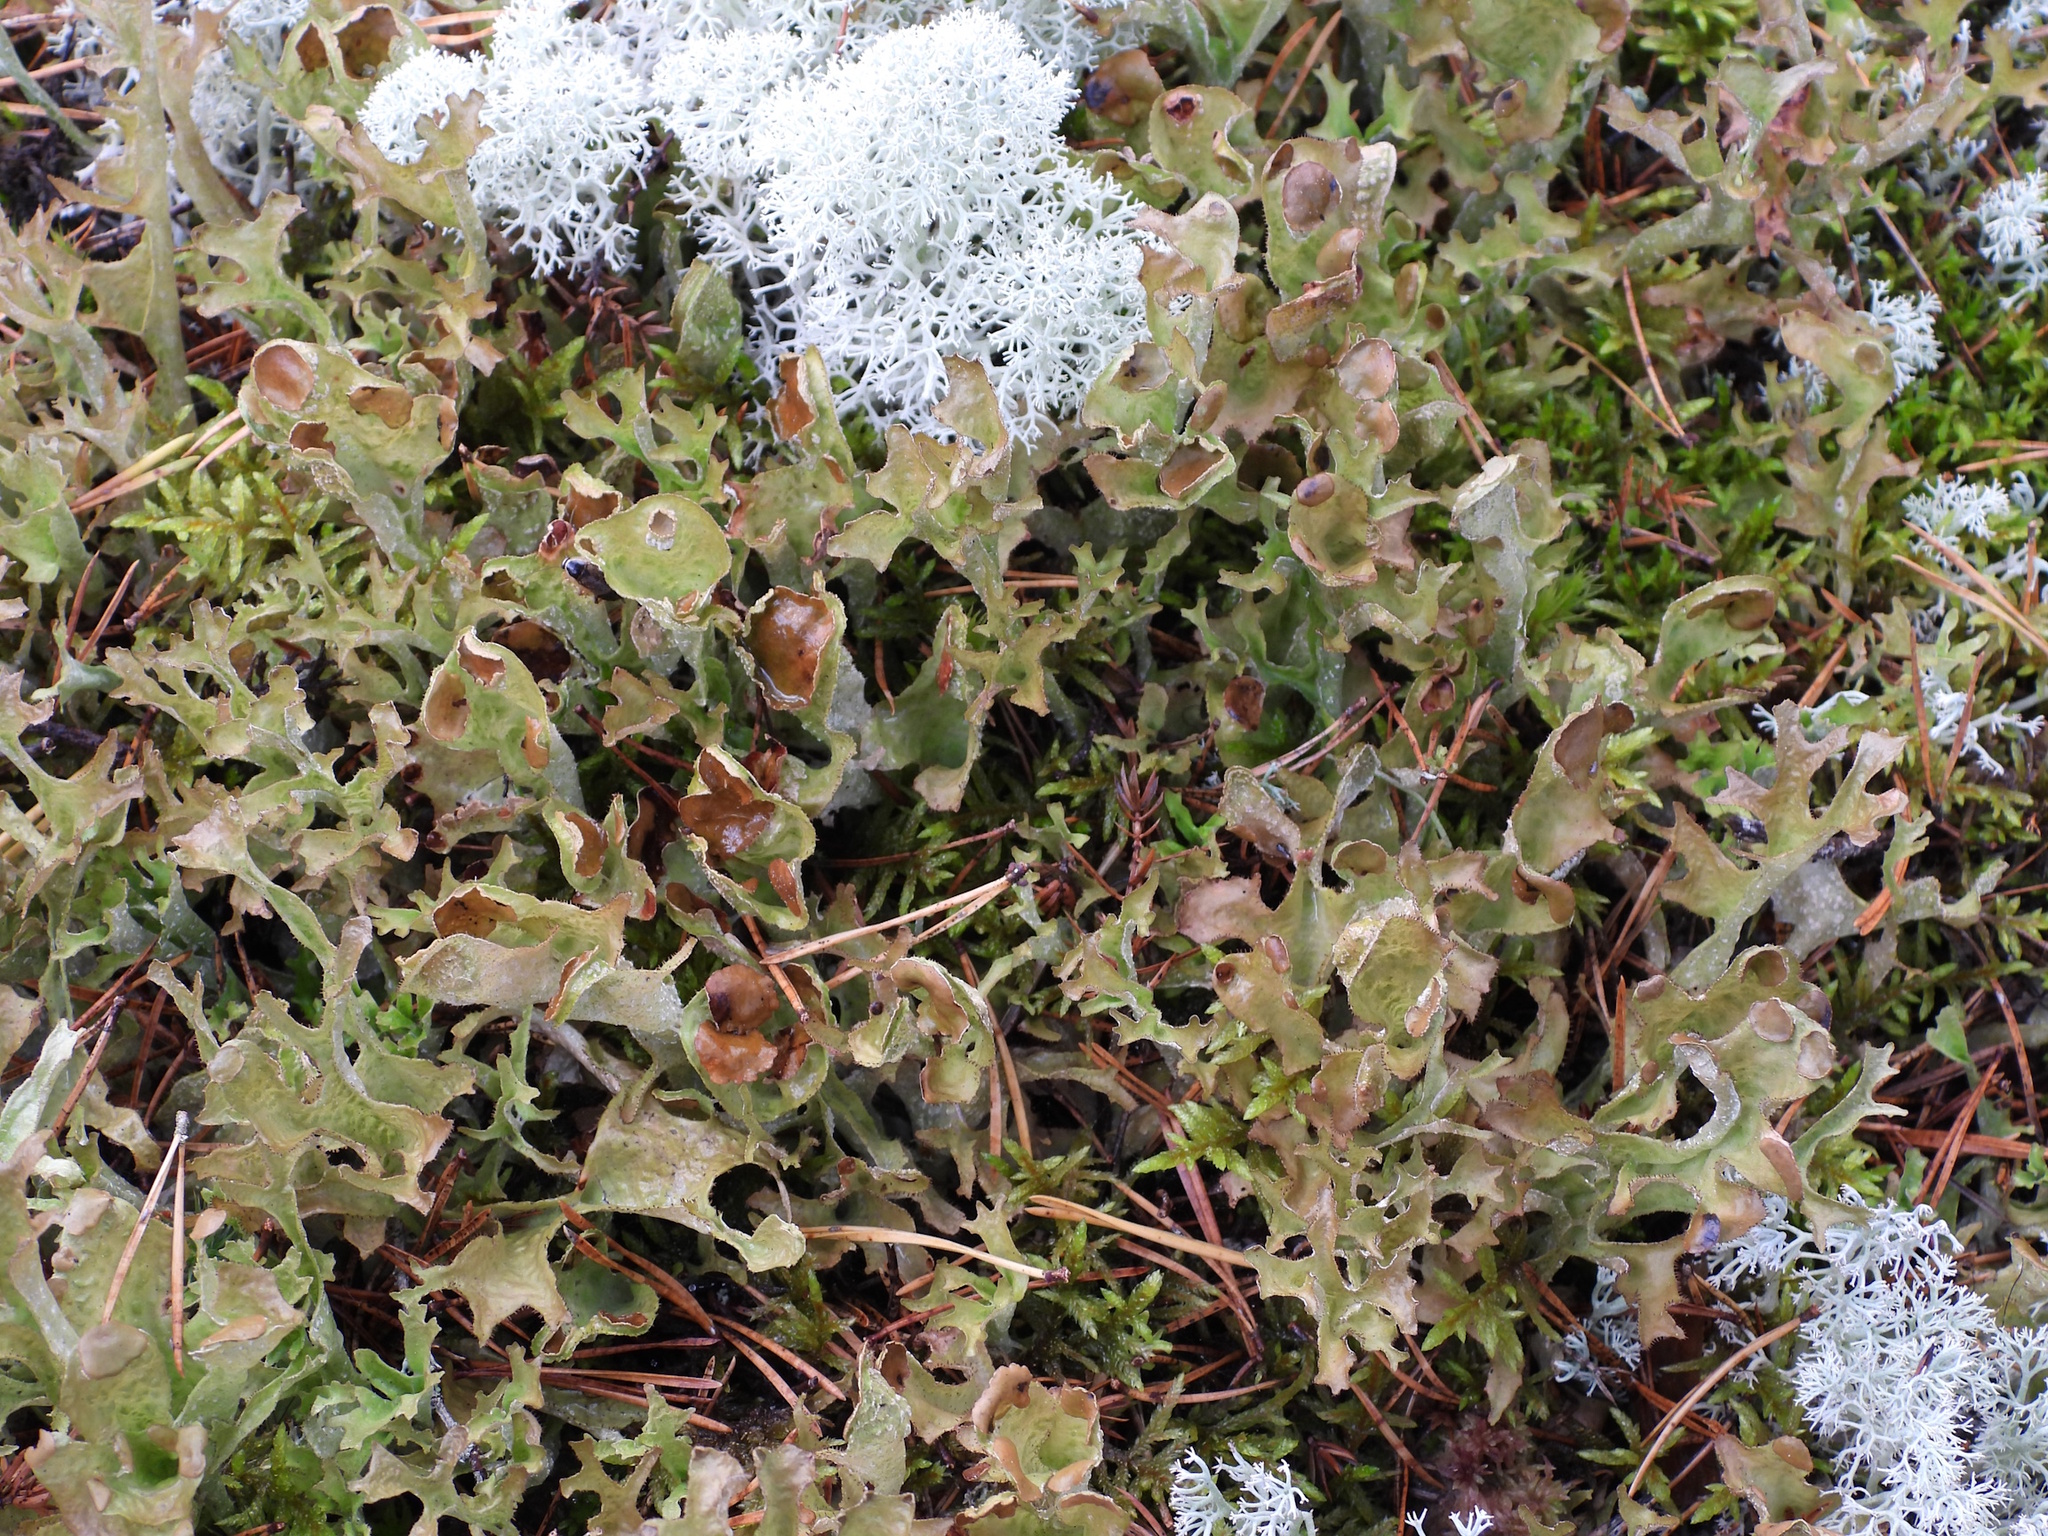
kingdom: Fungi
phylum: Ascomycota
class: Lecanoromycetes
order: Lecanorales
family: Parmeliaceae
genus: Cetraria
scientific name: Cetraria islandica
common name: Iceland lichen
